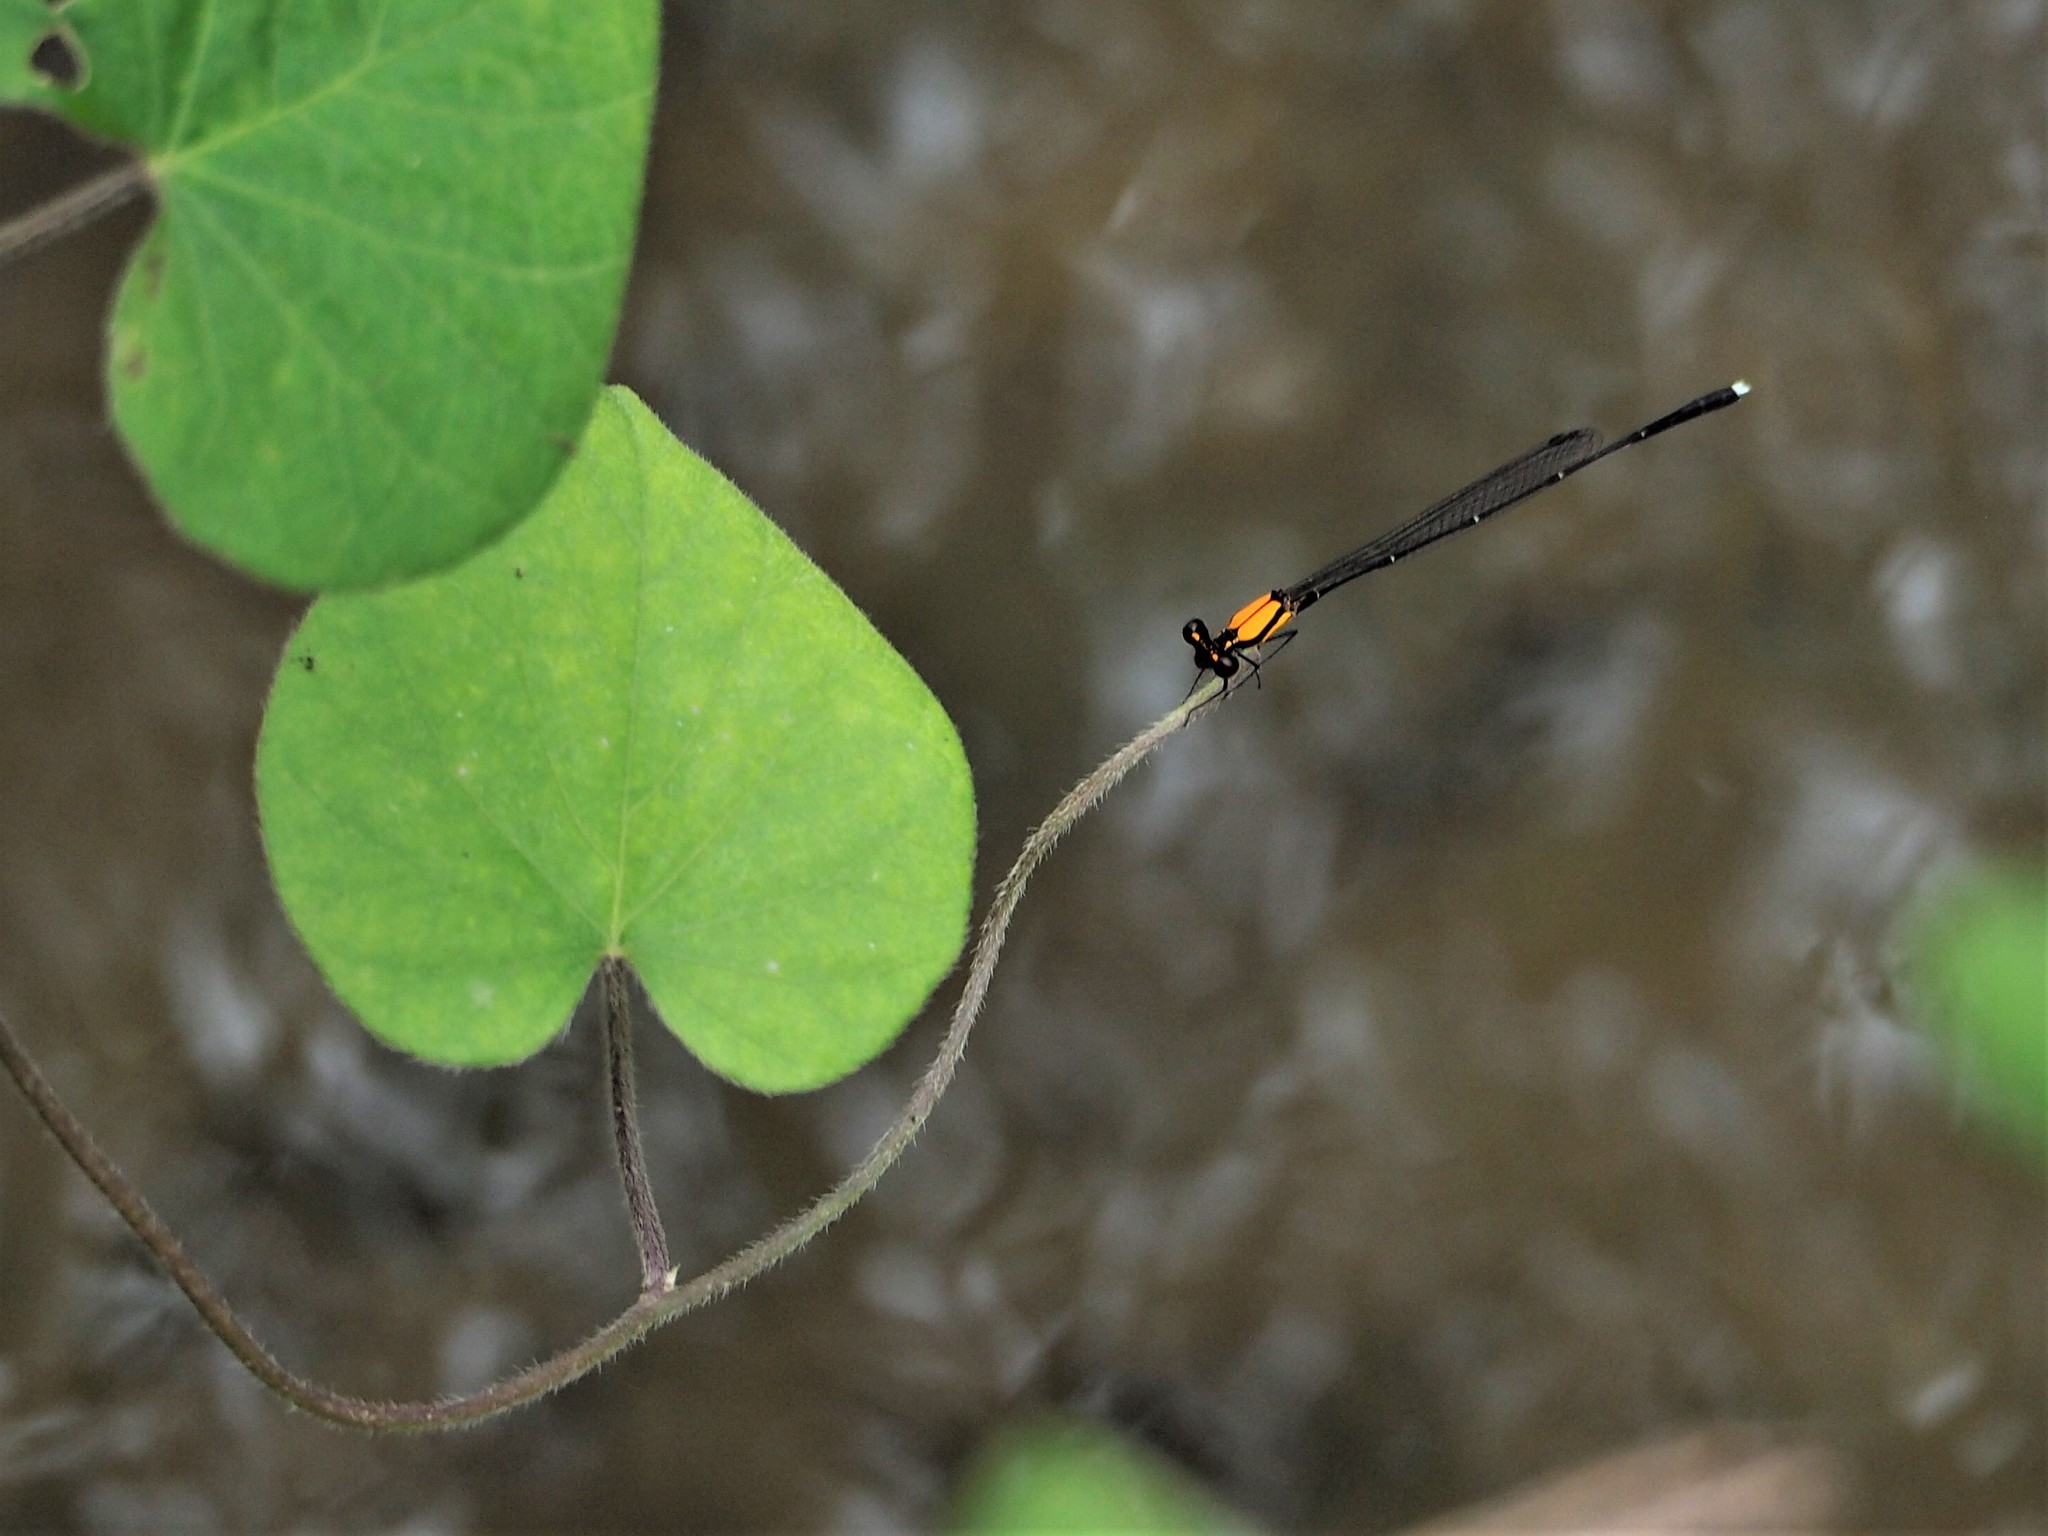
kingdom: Animalia
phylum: Arthropoda
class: Insecta
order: Odonata
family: Platycnemididae
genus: Prodasineura
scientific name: Prodasineura croconota
